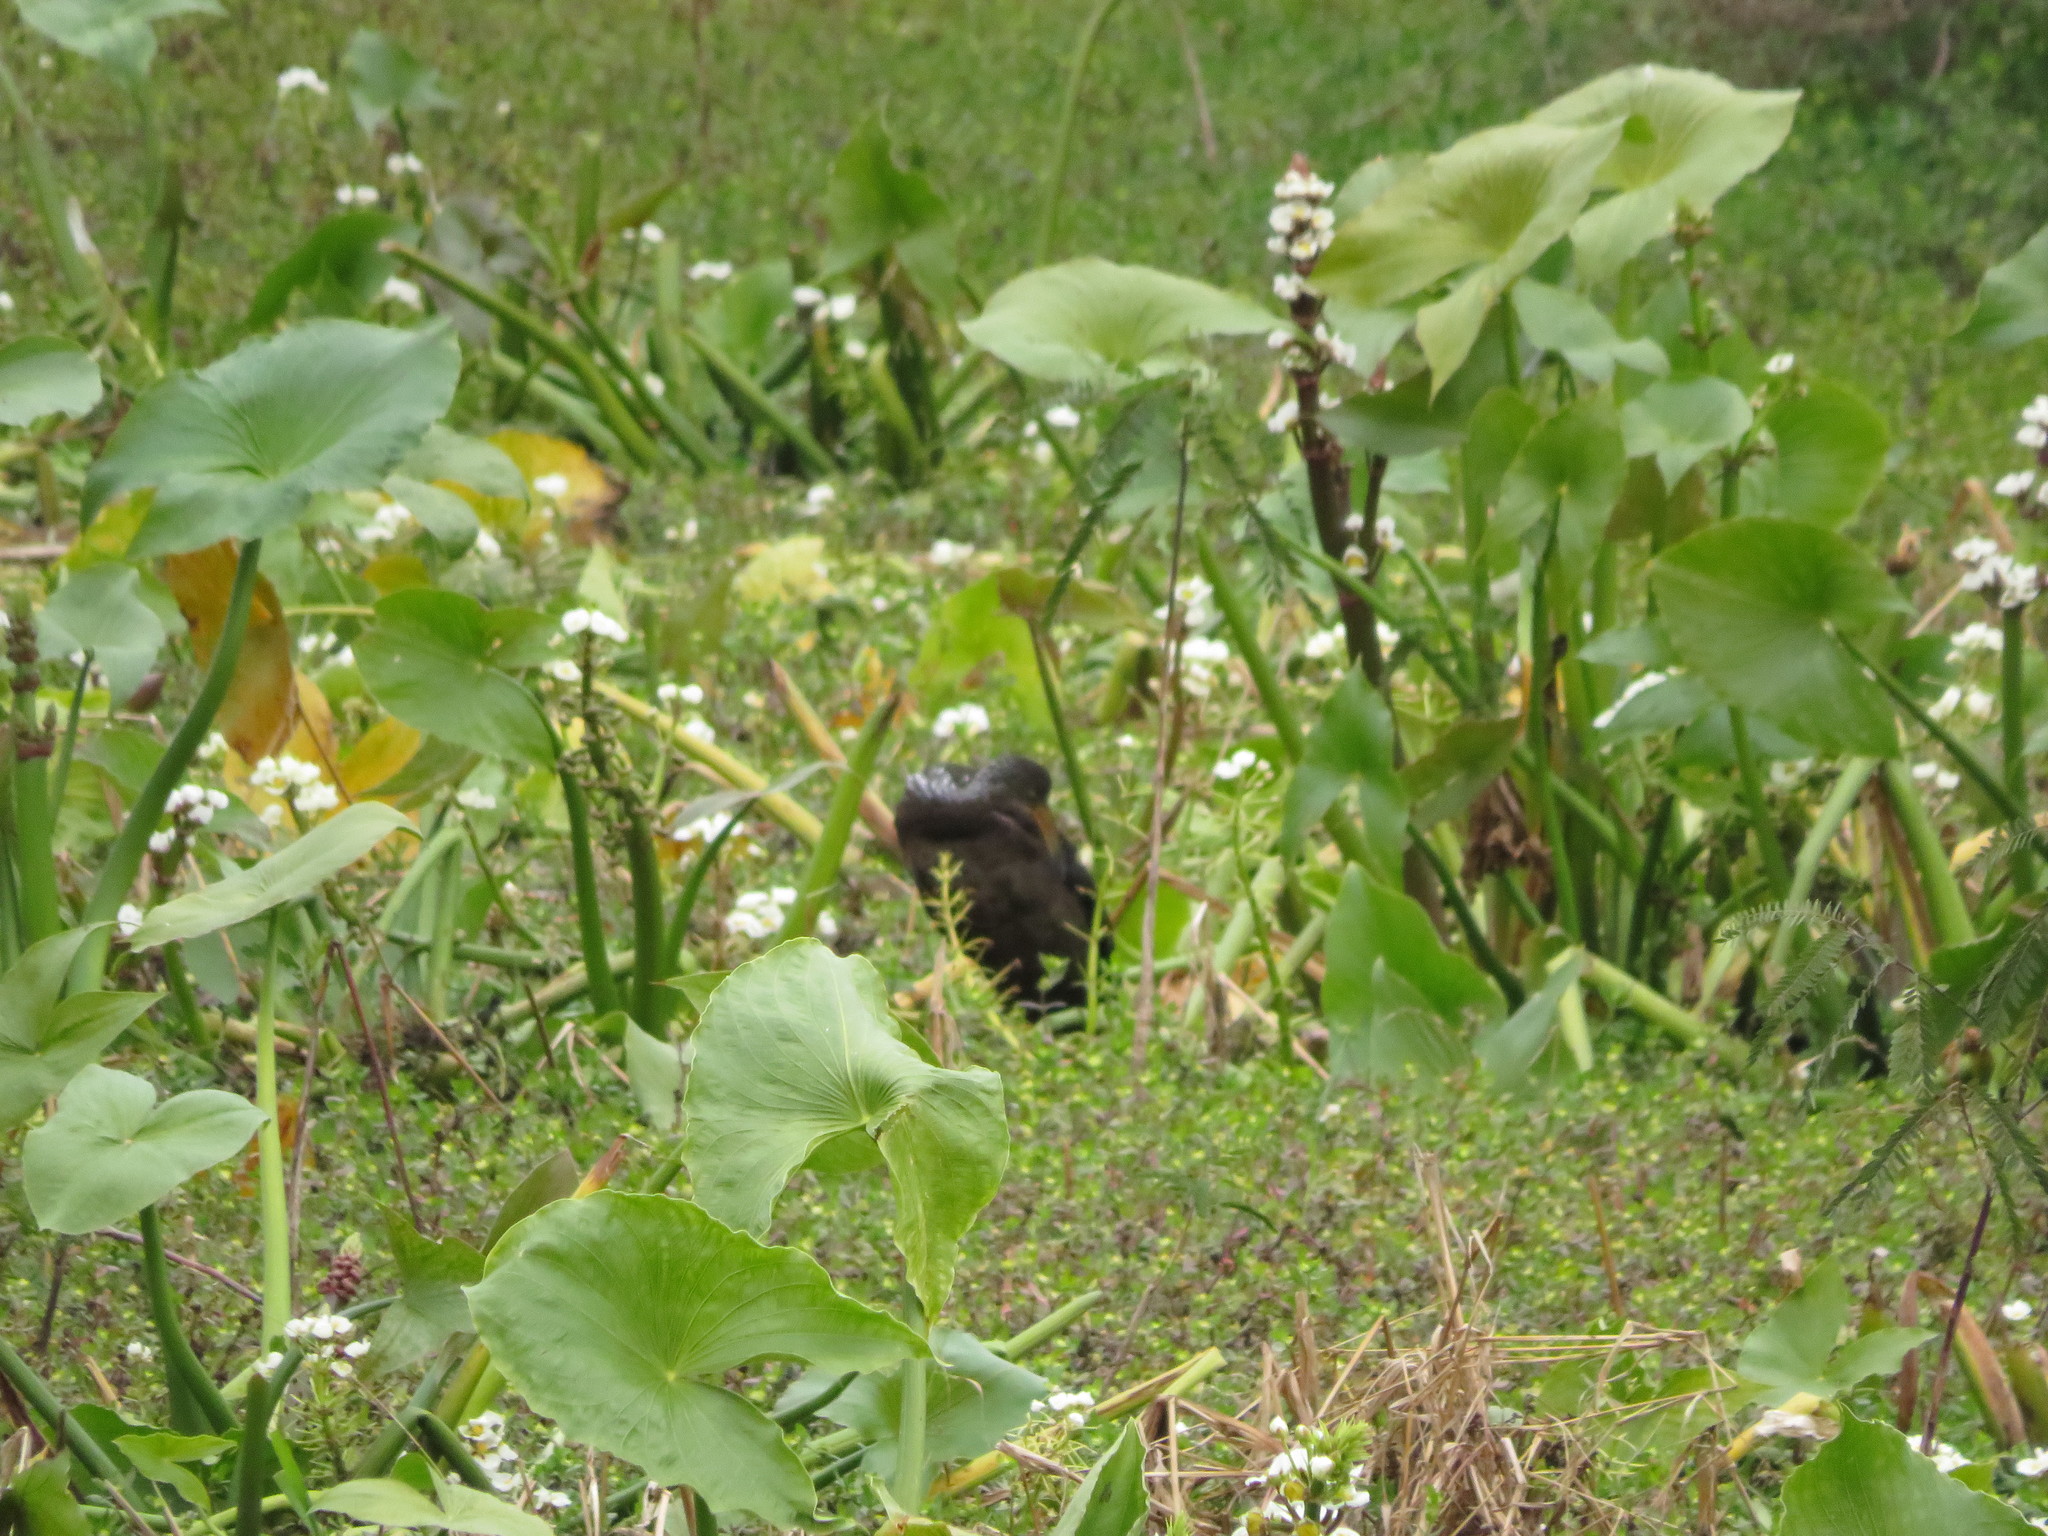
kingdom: Animalia
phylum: Chordata
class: Aves
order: Gruiformes
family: Aramidae
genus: Aramus
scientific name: Aramus guarauna
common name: Limpkin
